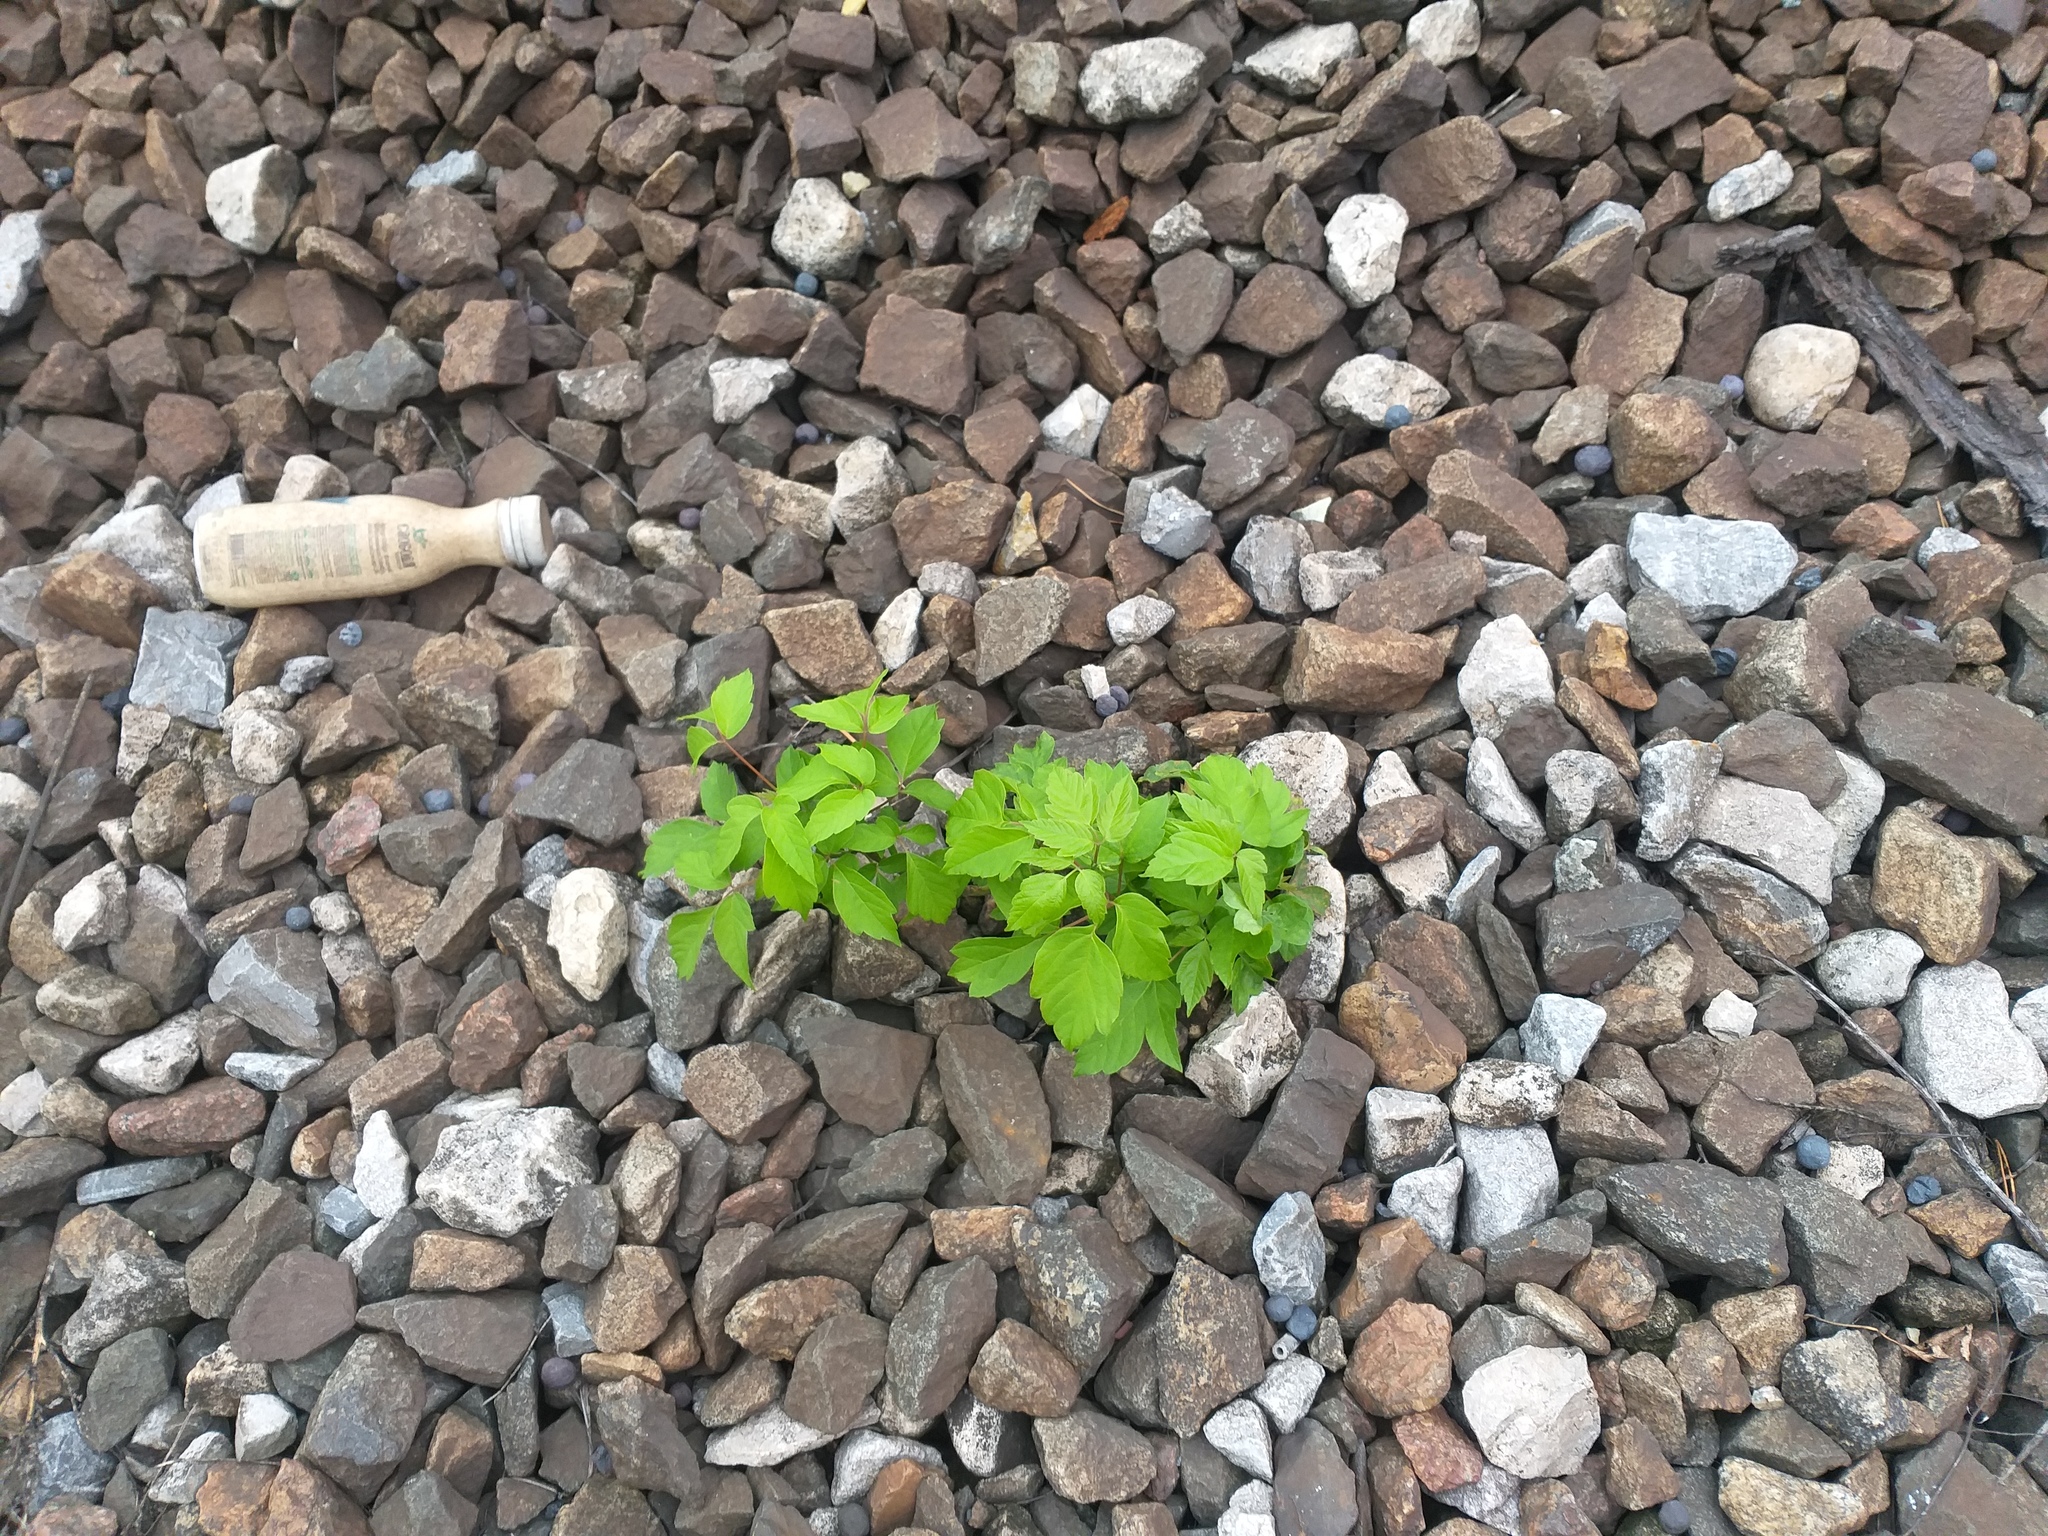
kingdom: Plantae
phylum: Tracheophyta
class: Magnoliopsida
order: Sapindales
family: Sapindaceae
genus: Acer
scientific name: Acer negundo
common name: Ashleaf maple
